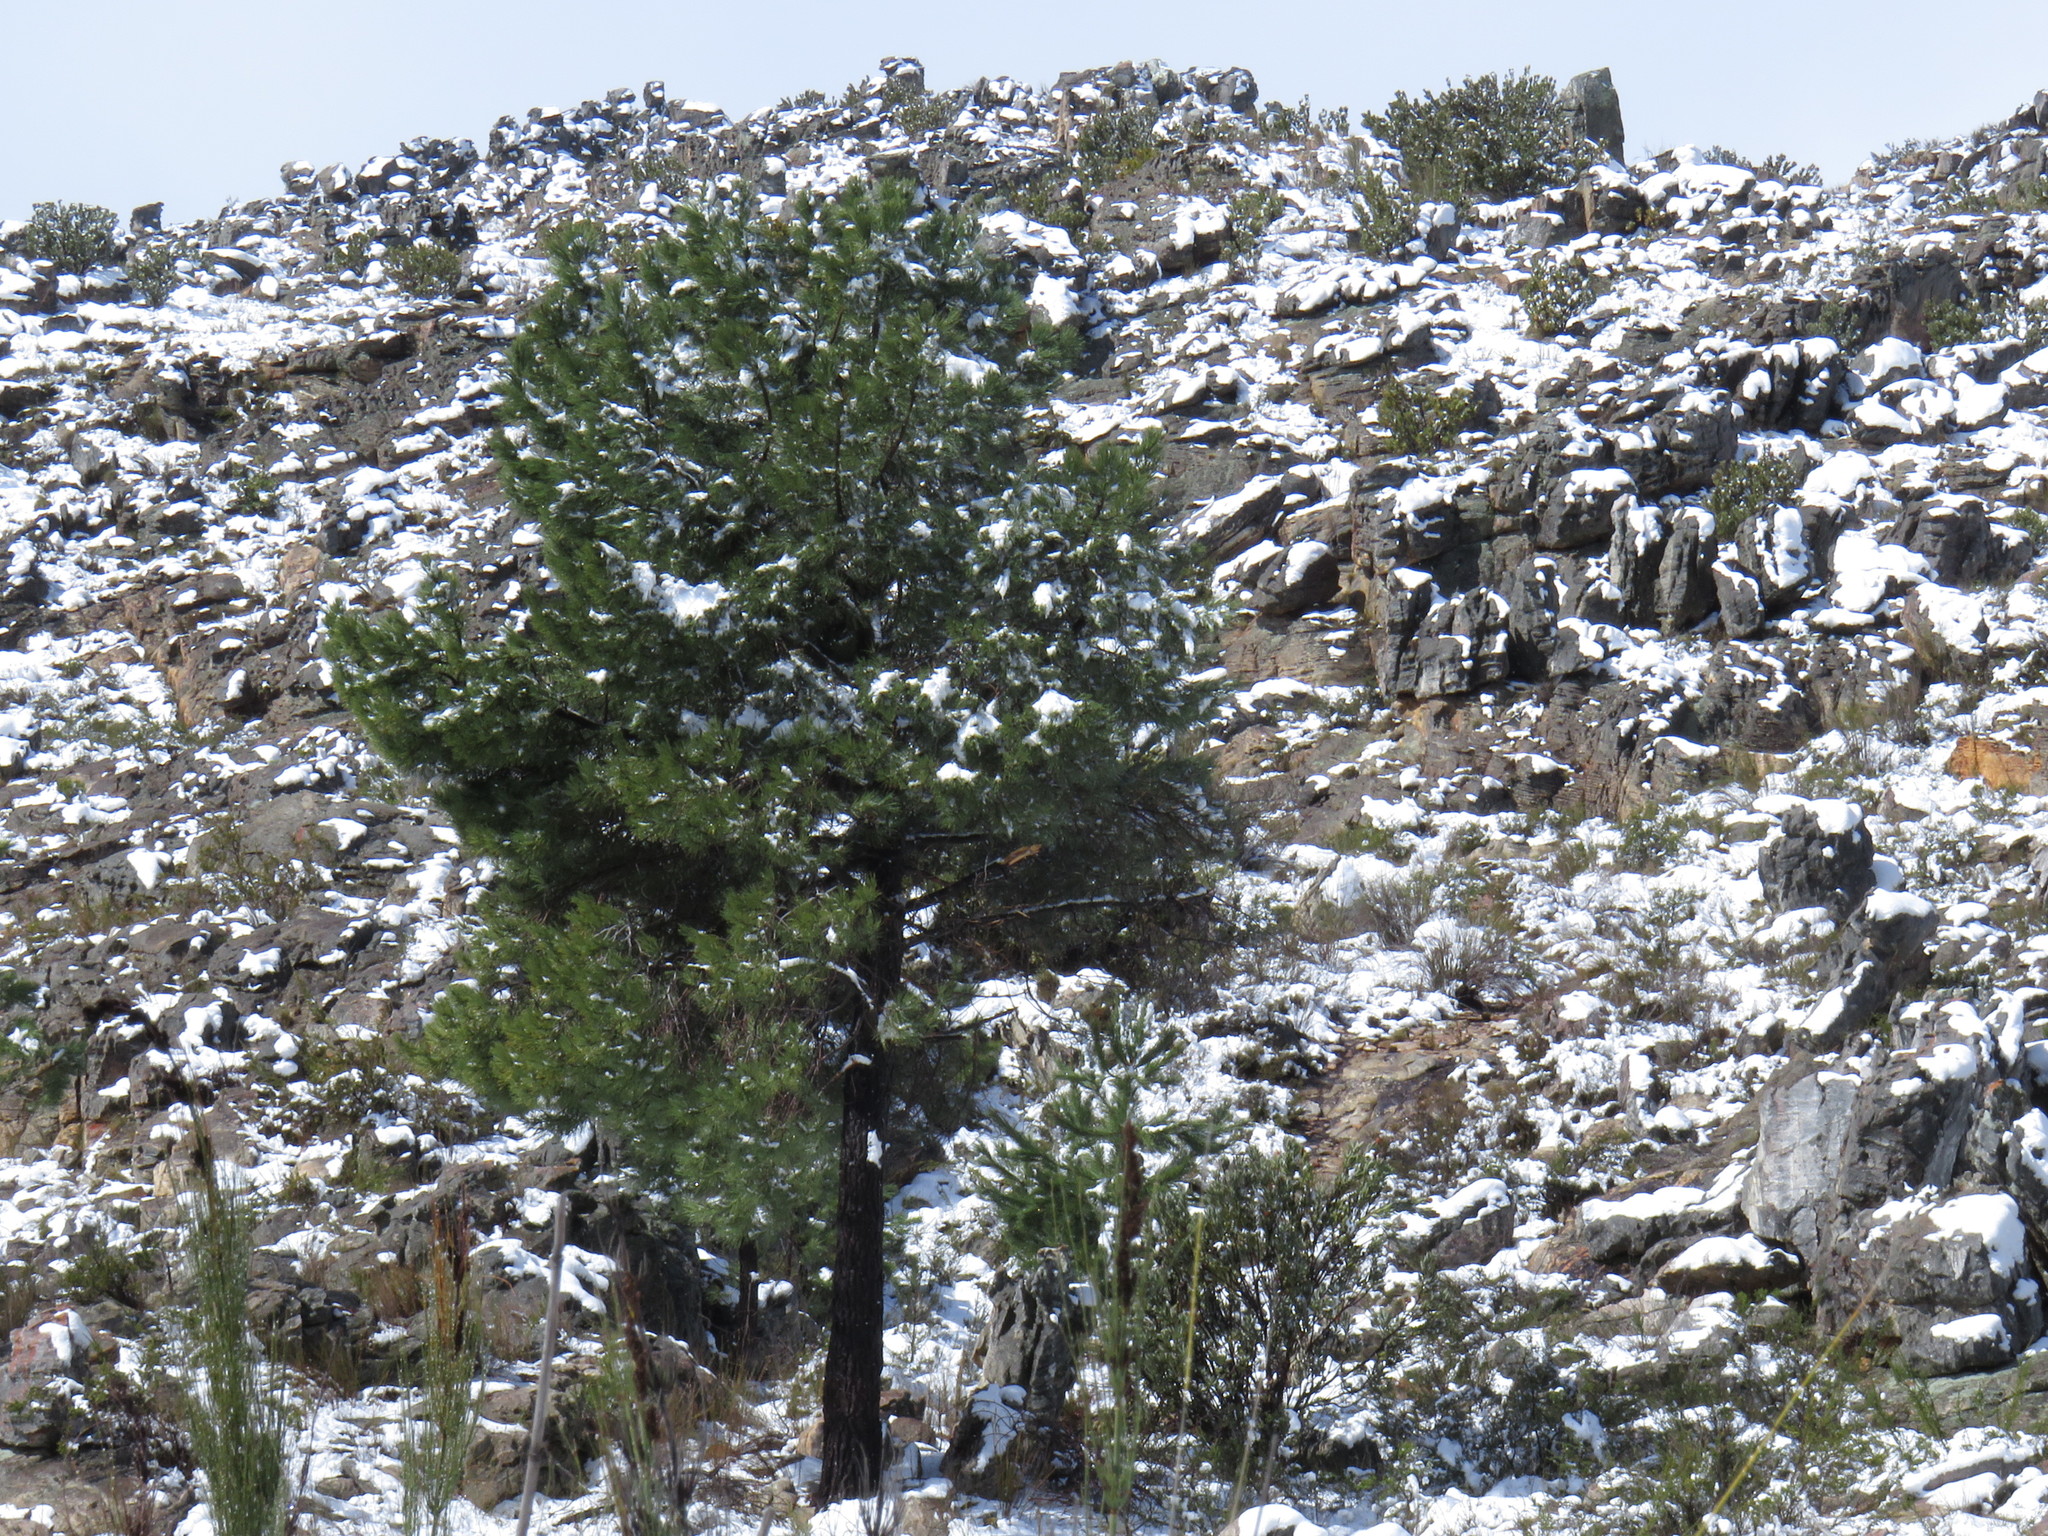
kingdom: Plantae
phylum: Tracheophyta
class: Pinopsida
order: Pinales
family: Pinaceae
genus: Pinus
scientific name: Pinus pinaster
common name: Maritime pine
